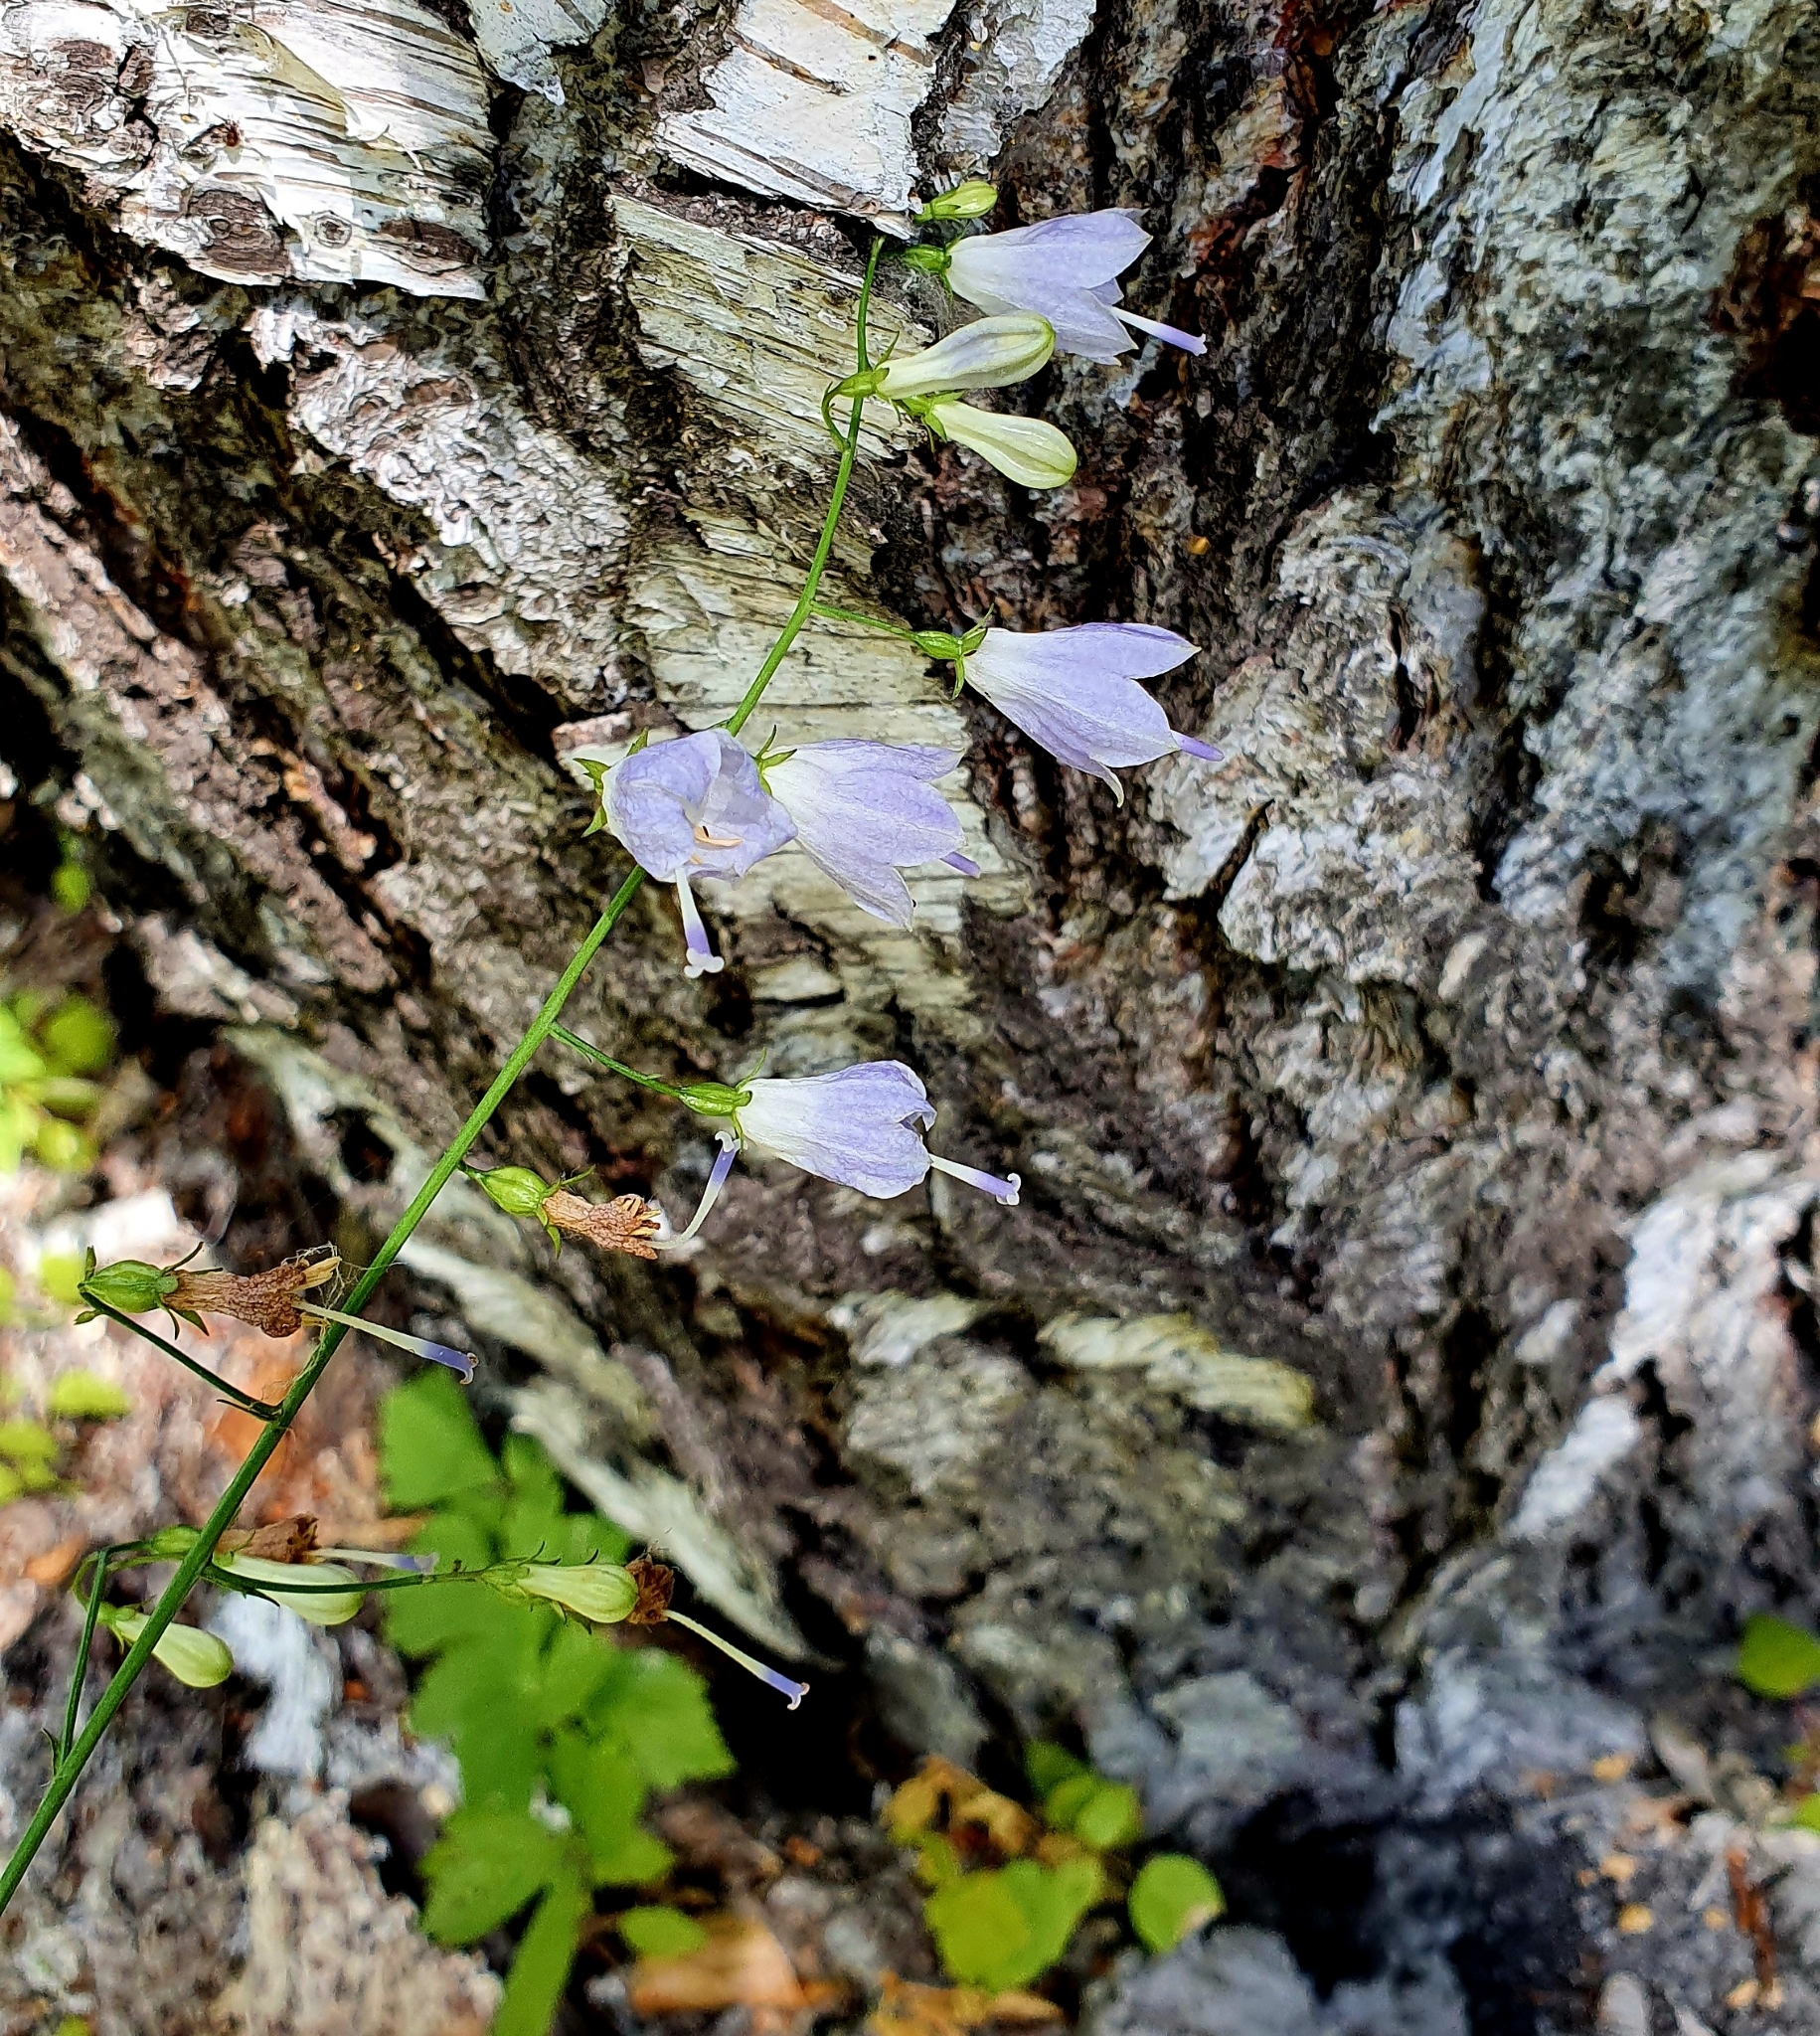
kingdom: Plantae
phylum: Tracheophyta
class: Magnoliopsida
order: Asterales
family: Campanulaceae
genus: Adenophora
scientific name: Adenophora liliifolia
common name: Lilyleaf ladybells
